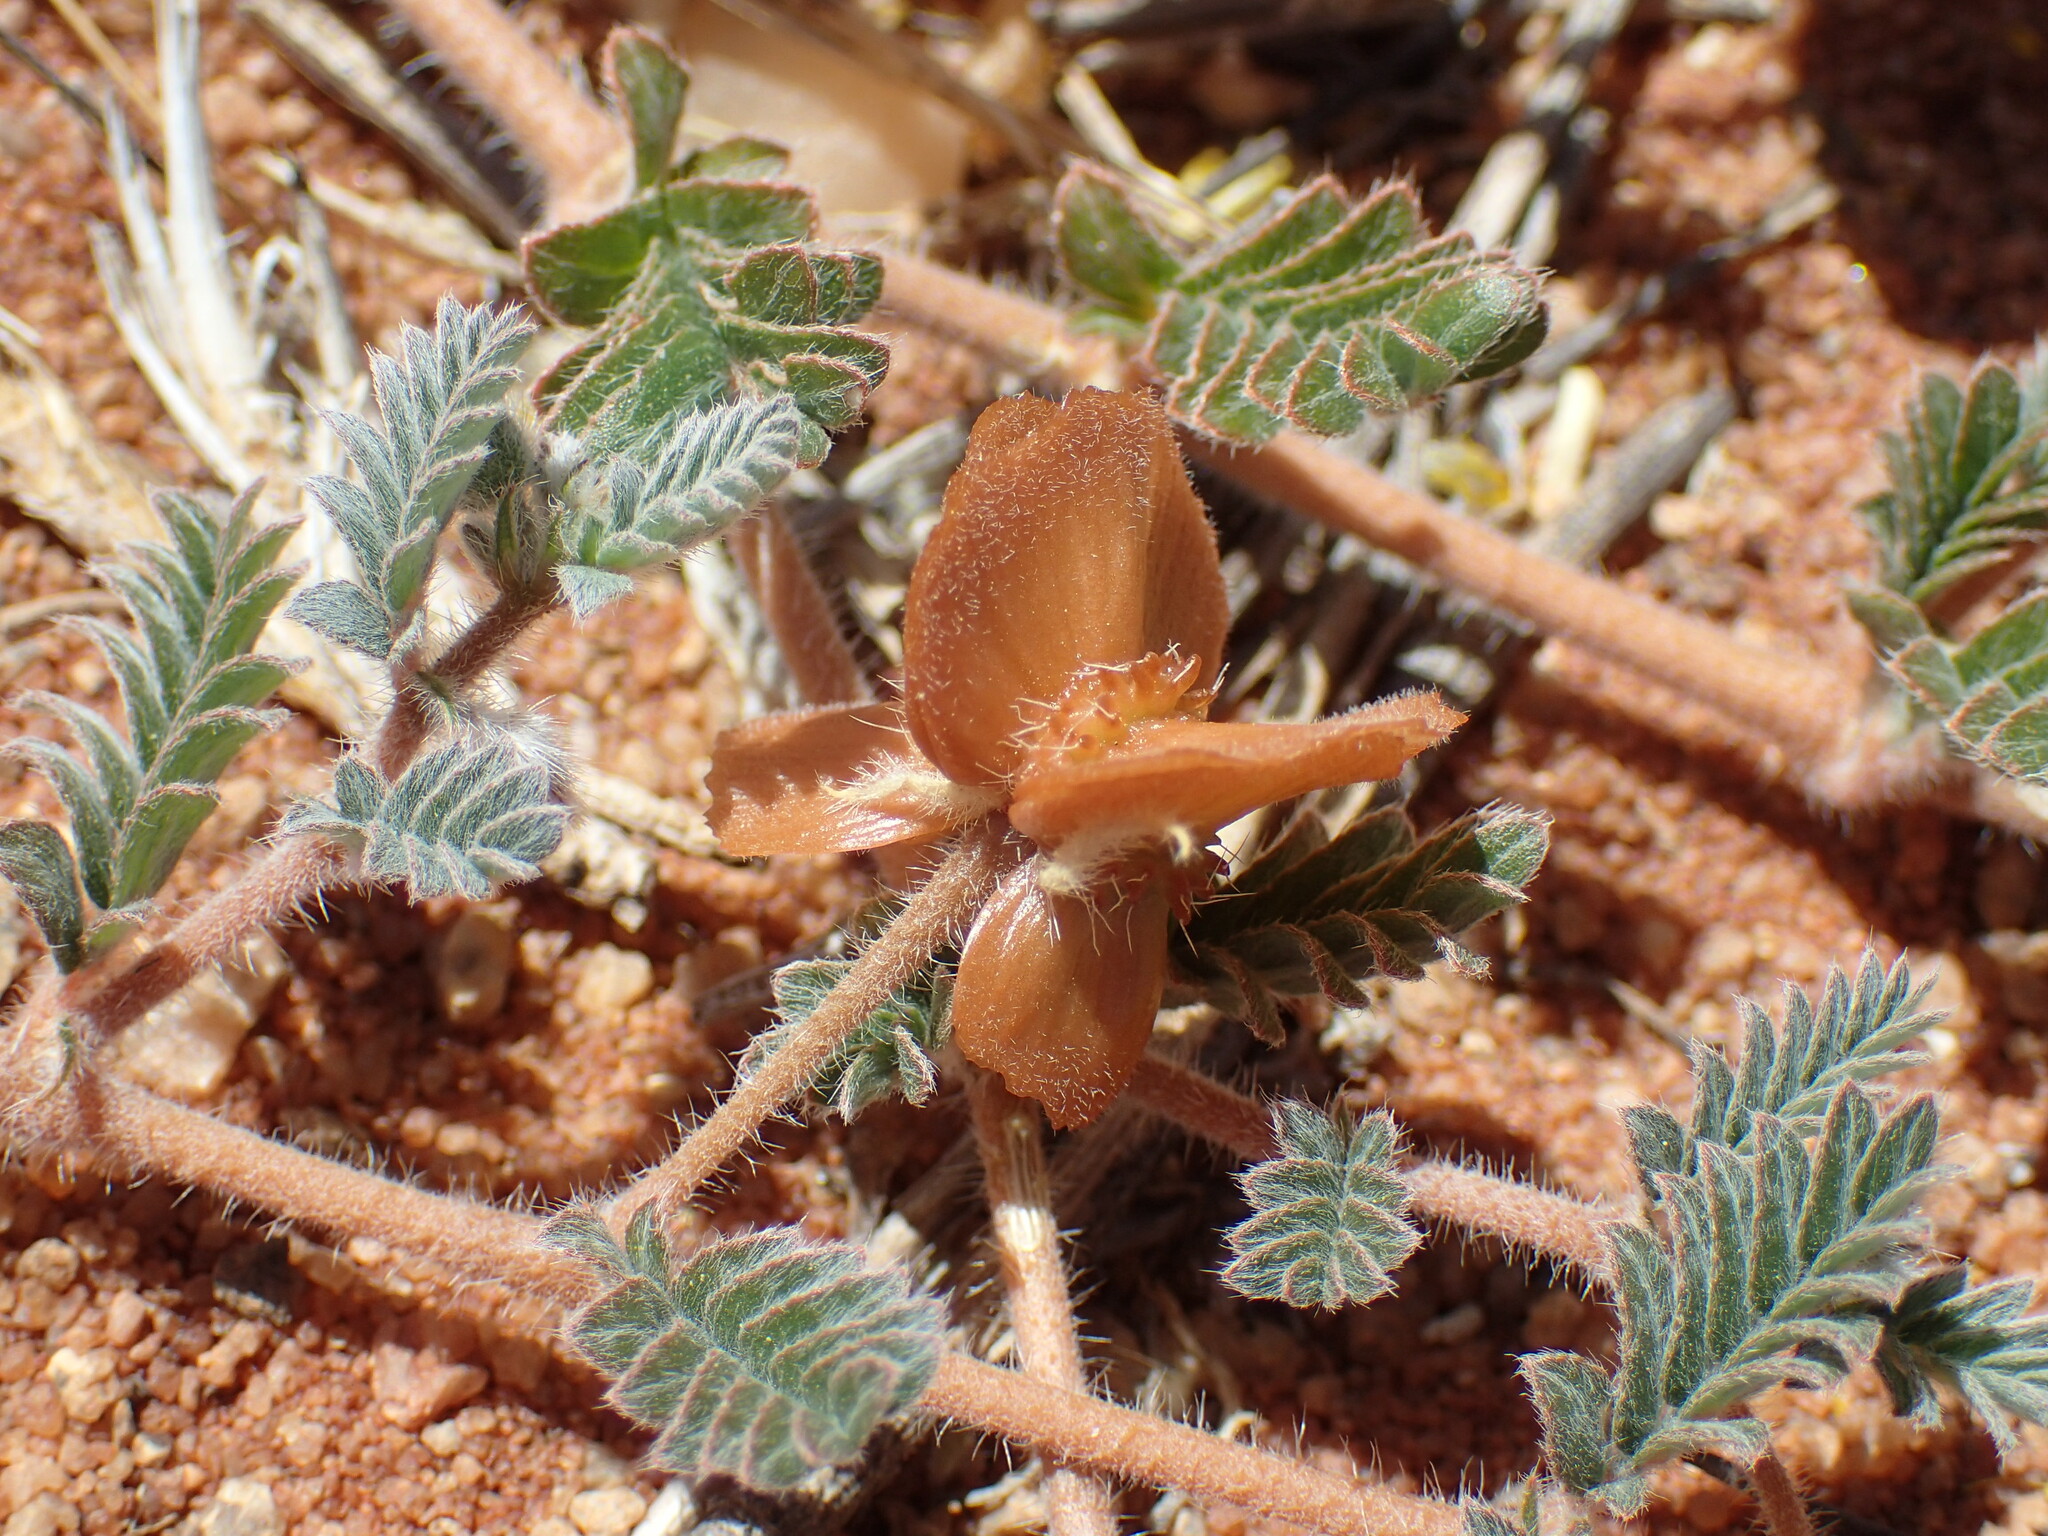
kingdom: Plantae
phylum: Tracheophyta
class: Magnoliopsida
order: Zygophyllales
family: Zygophyllaceae
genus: Tribulus
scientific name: Tribulus pentandrus
